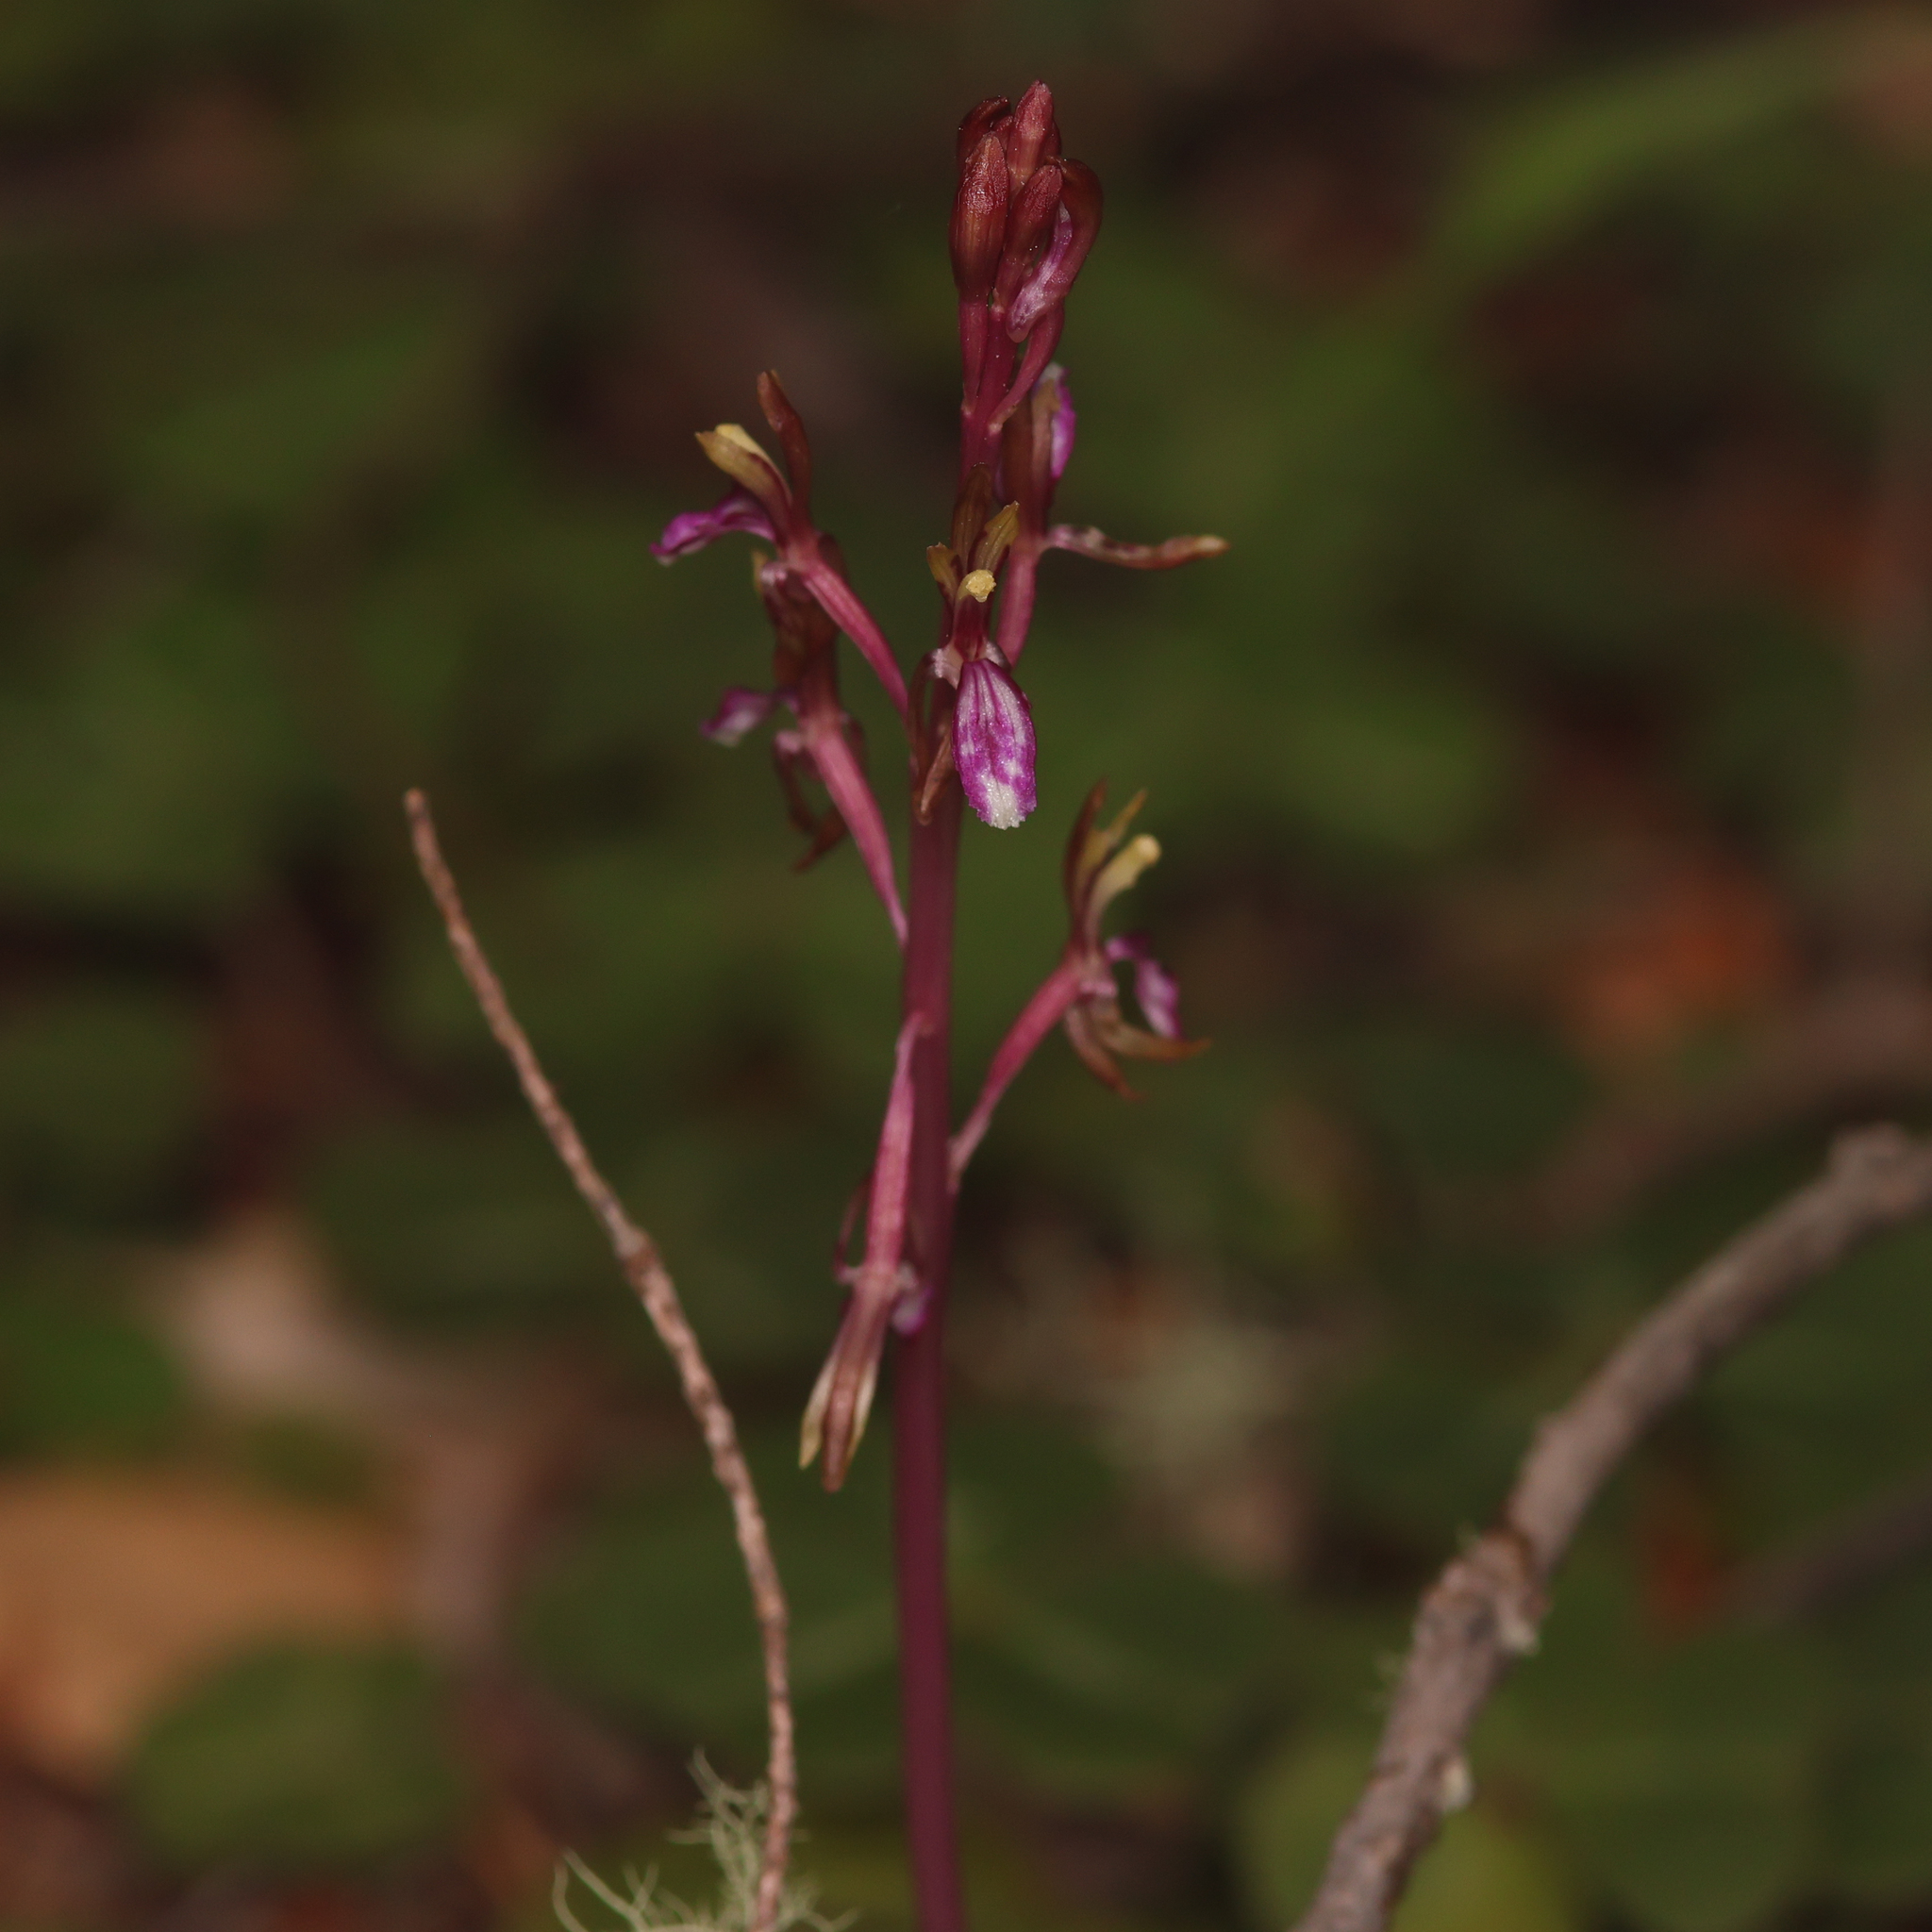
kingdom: Plantae
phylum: Tracheophyta
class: Liliopsida
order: Asparagales
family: Orchidaceae
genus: Corallorhiza
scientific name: Corallorhiza mertensiana
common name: Pacific coralroot
